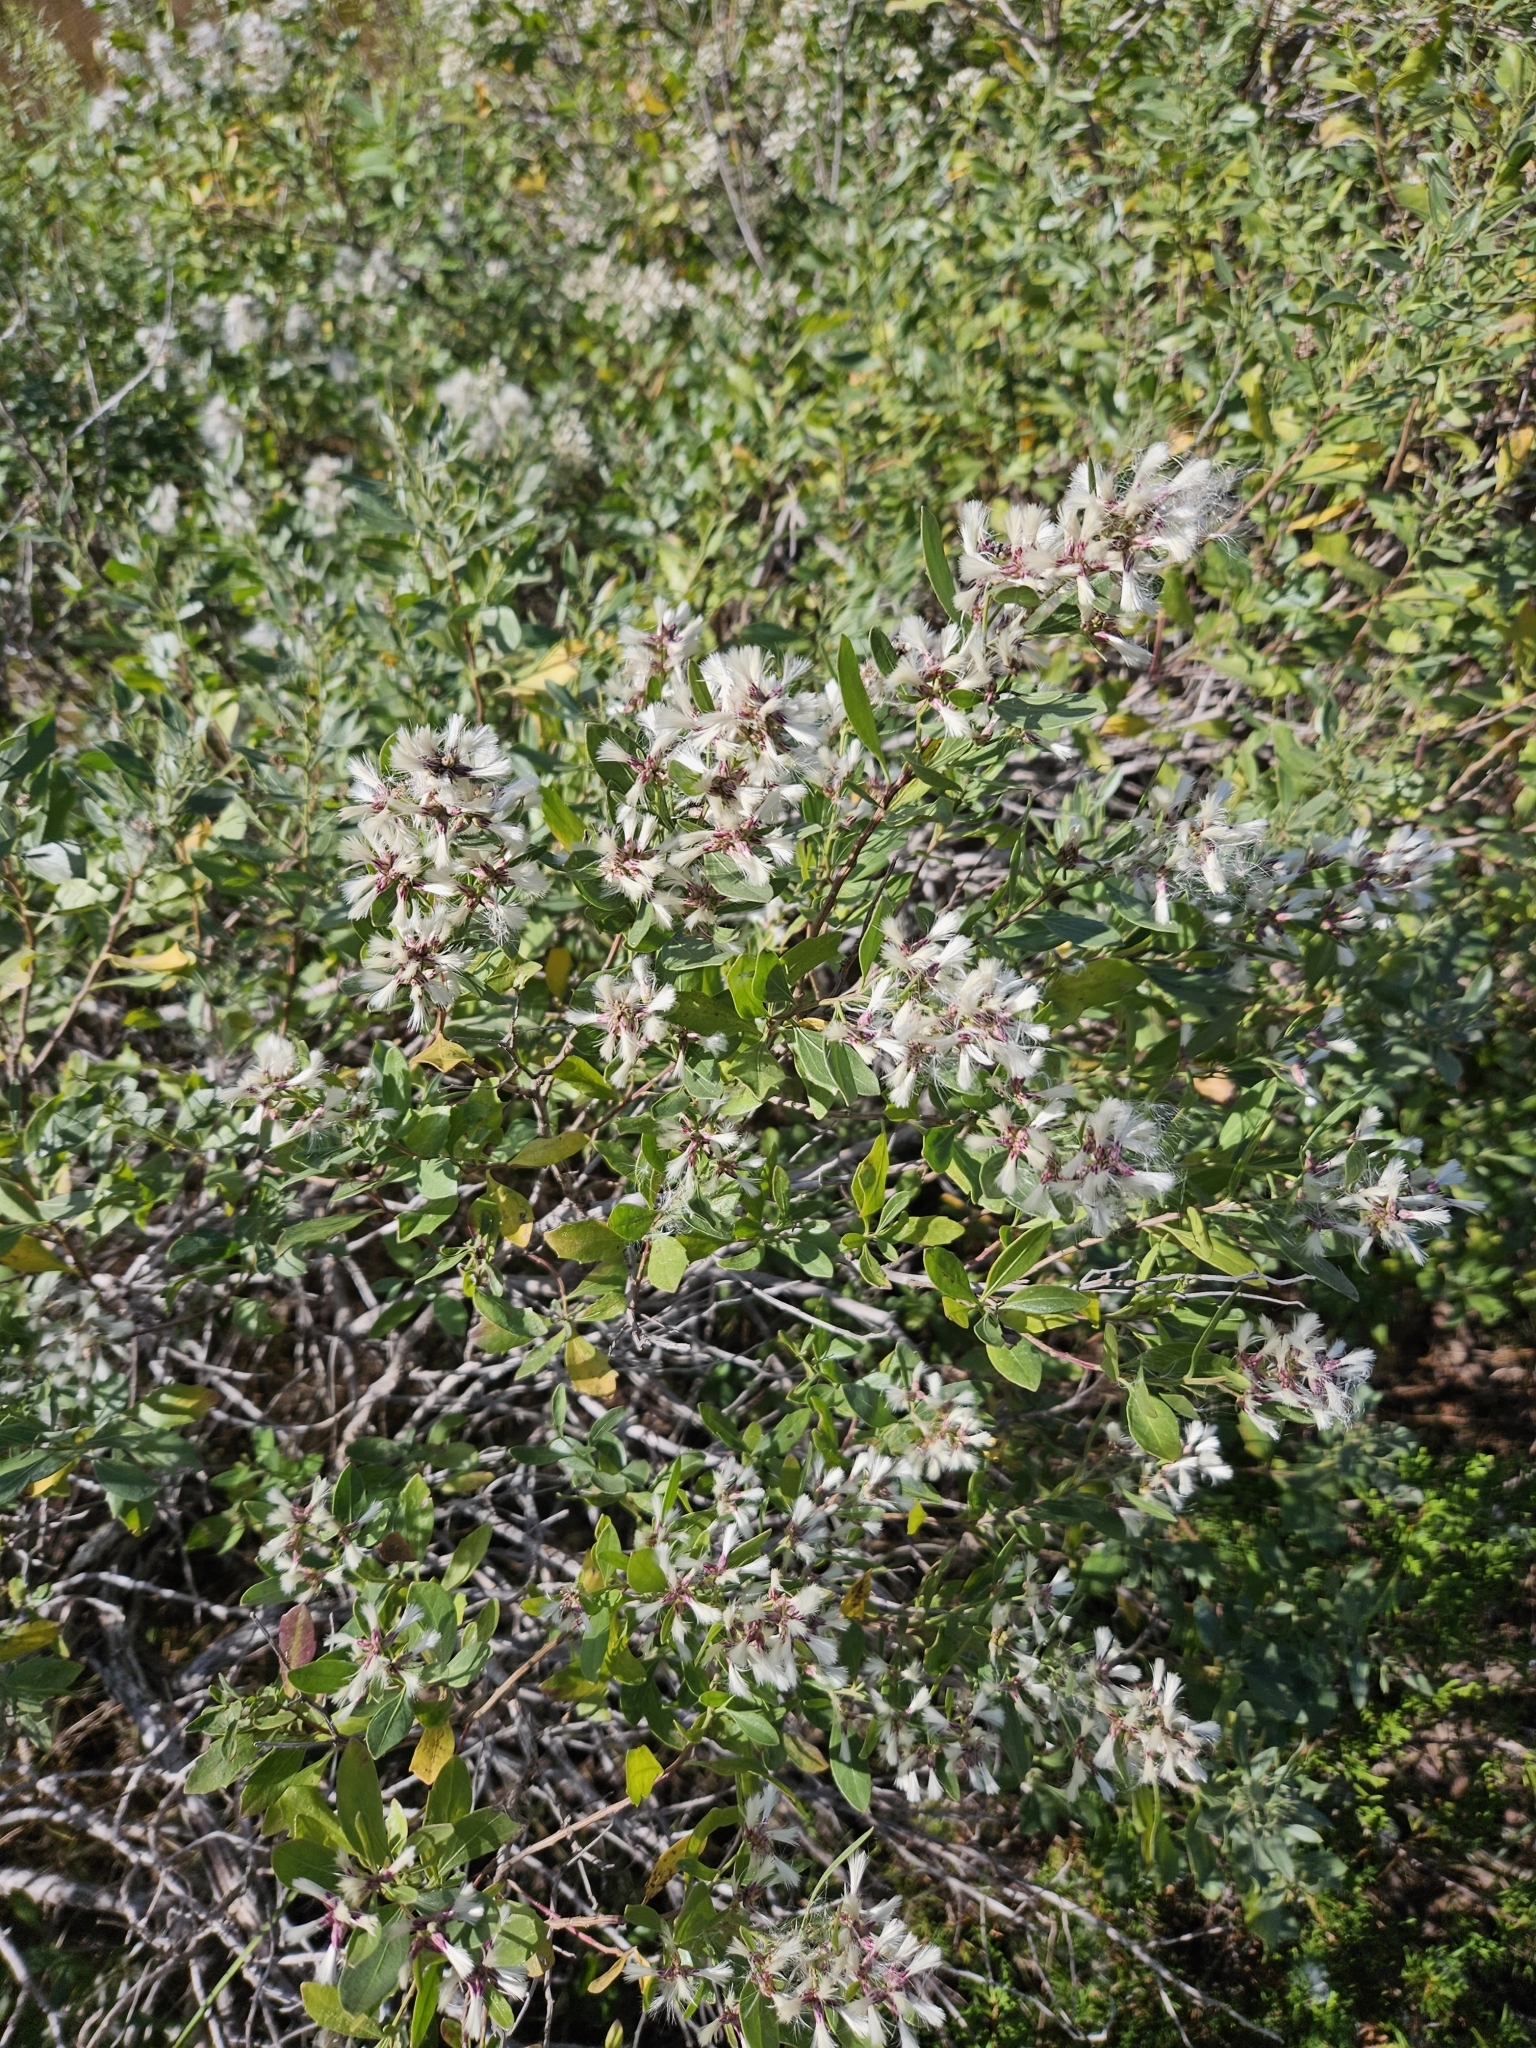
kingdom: Plantae
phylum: Tracheophyta
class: Magnoliopsida
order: Asterales
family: Asteraceae
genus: Baccharis
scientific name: Baccharis halimifolia
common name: Eastern baccharis
